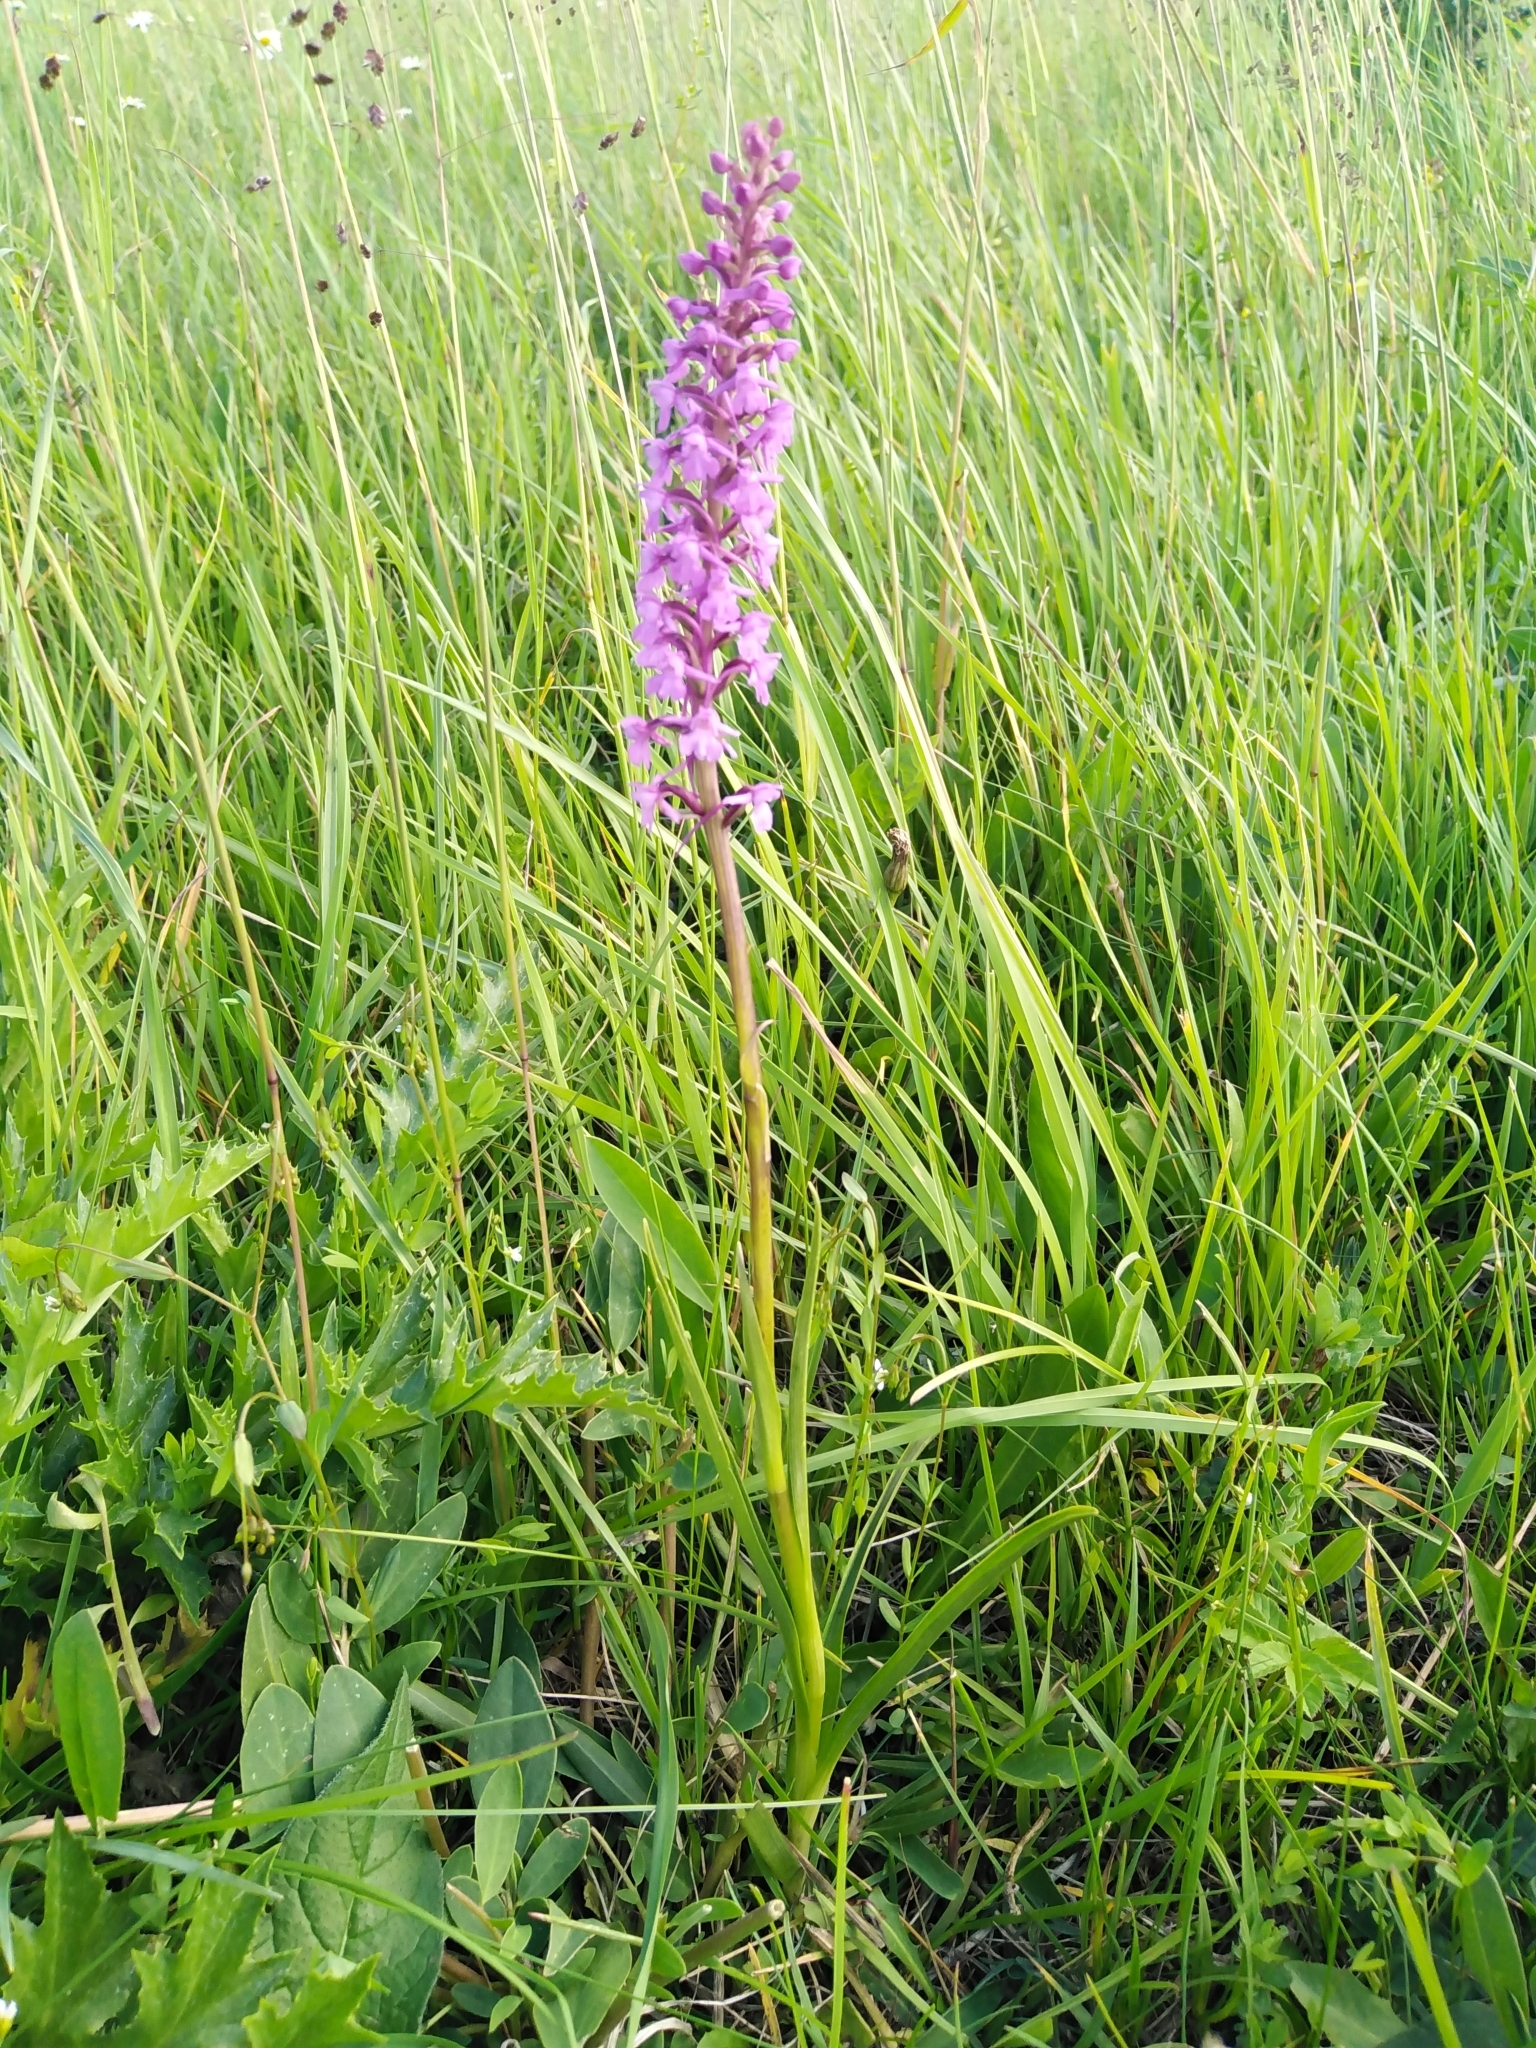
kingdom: Plantae
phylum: Tracheophyta
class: Liliopsida
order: Asparagales
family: Orchidaceae
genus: Gymnadenia
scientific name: Gymnadenia conopsea
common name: Fragrant orchid
